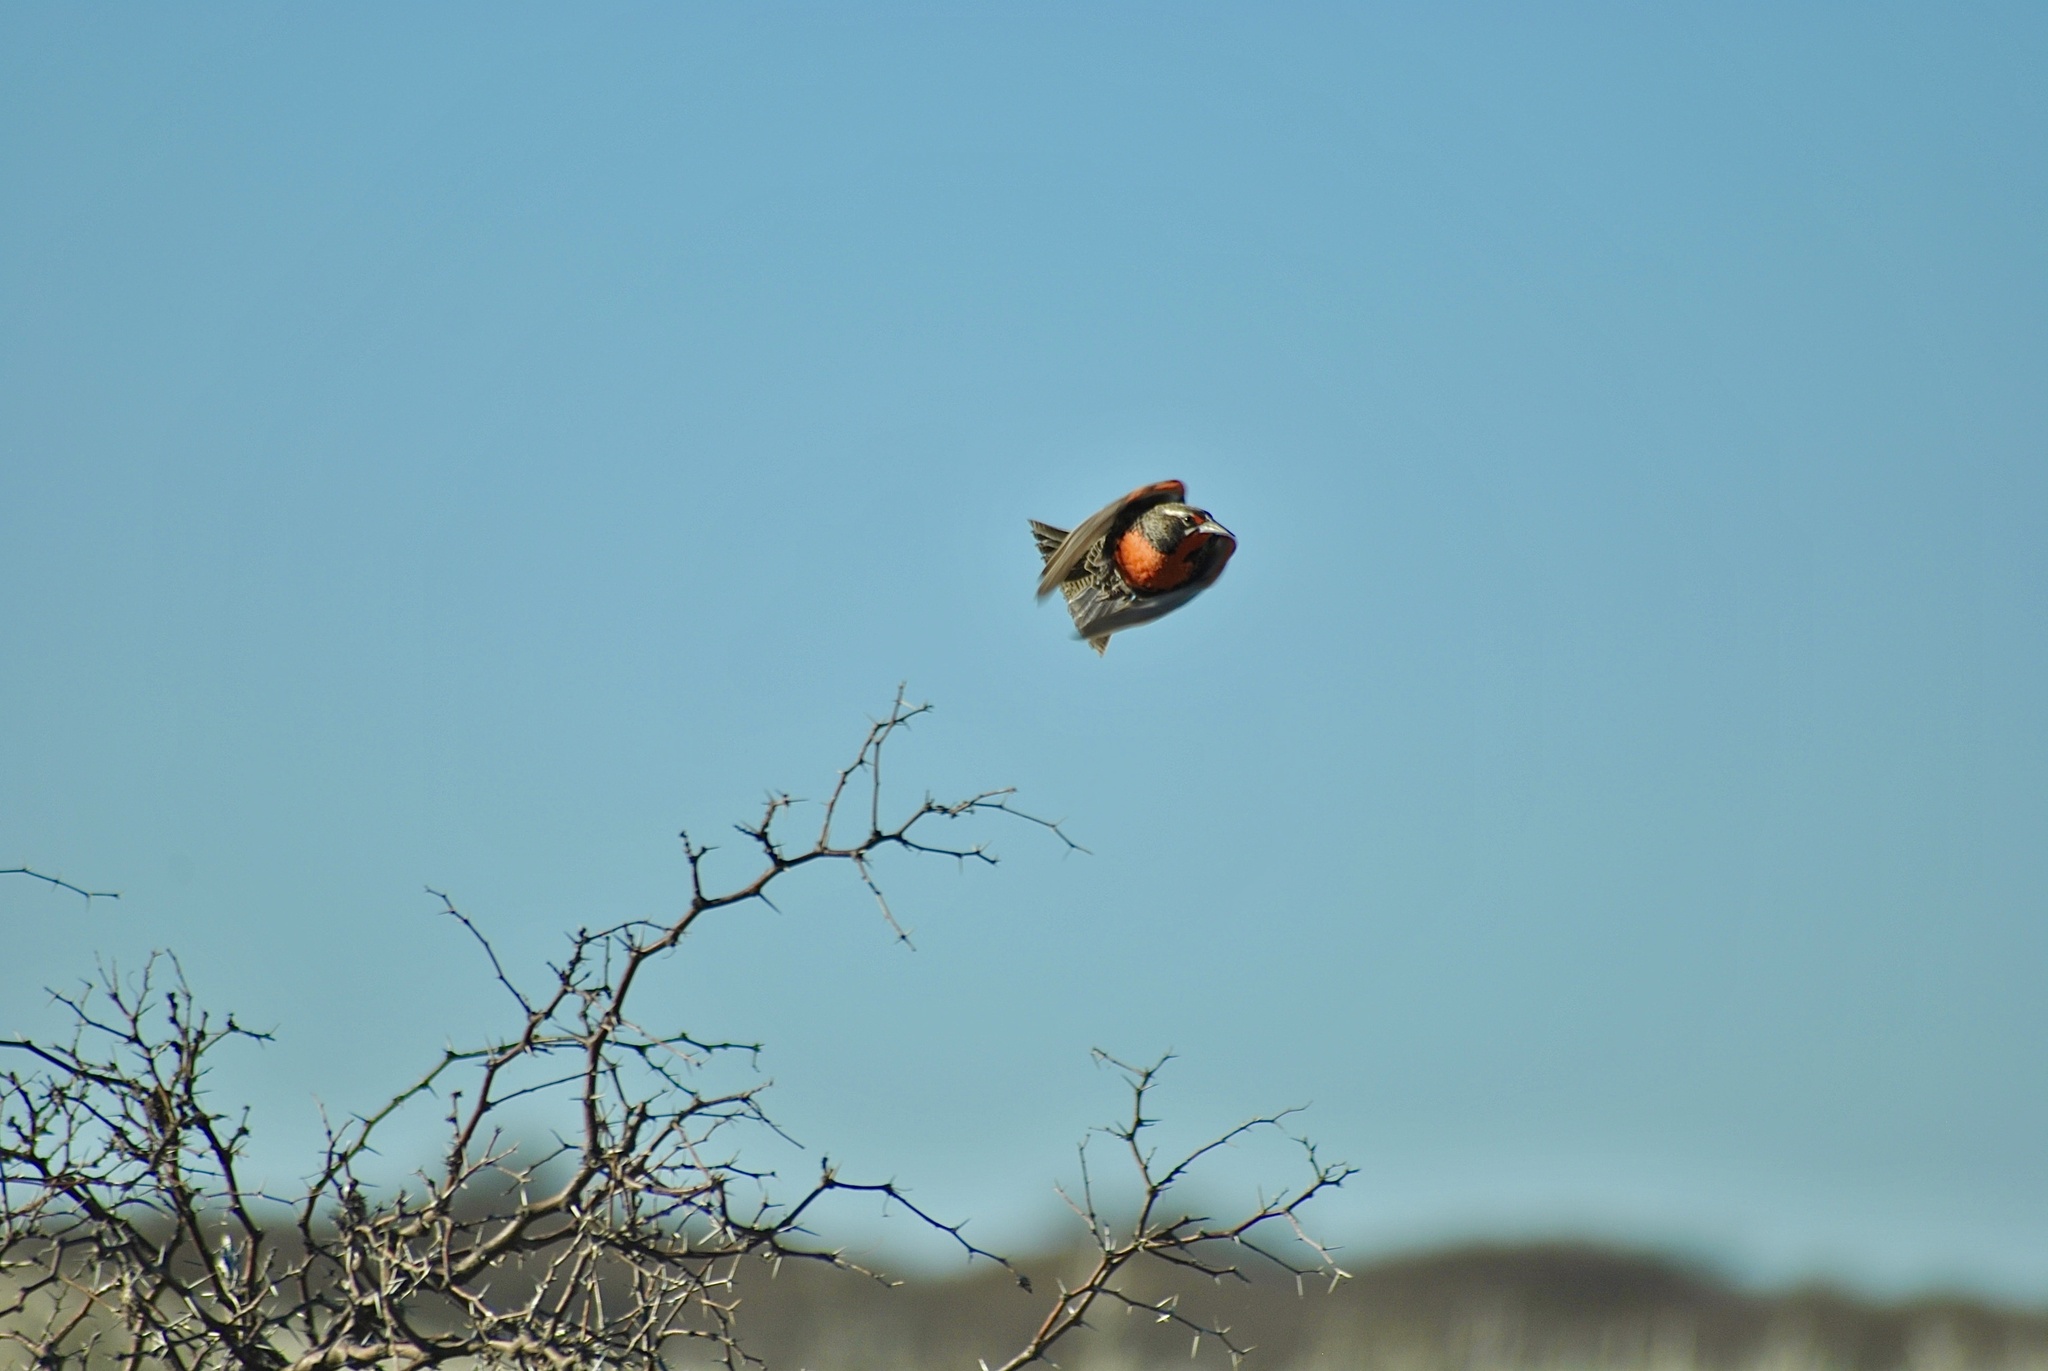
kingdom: Animalia
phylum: Chordata
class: Aves
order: Passeriformes
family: Icteridae
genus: Sturnella
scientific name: Sturnella loyca
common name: Long-tailed meadowlark
